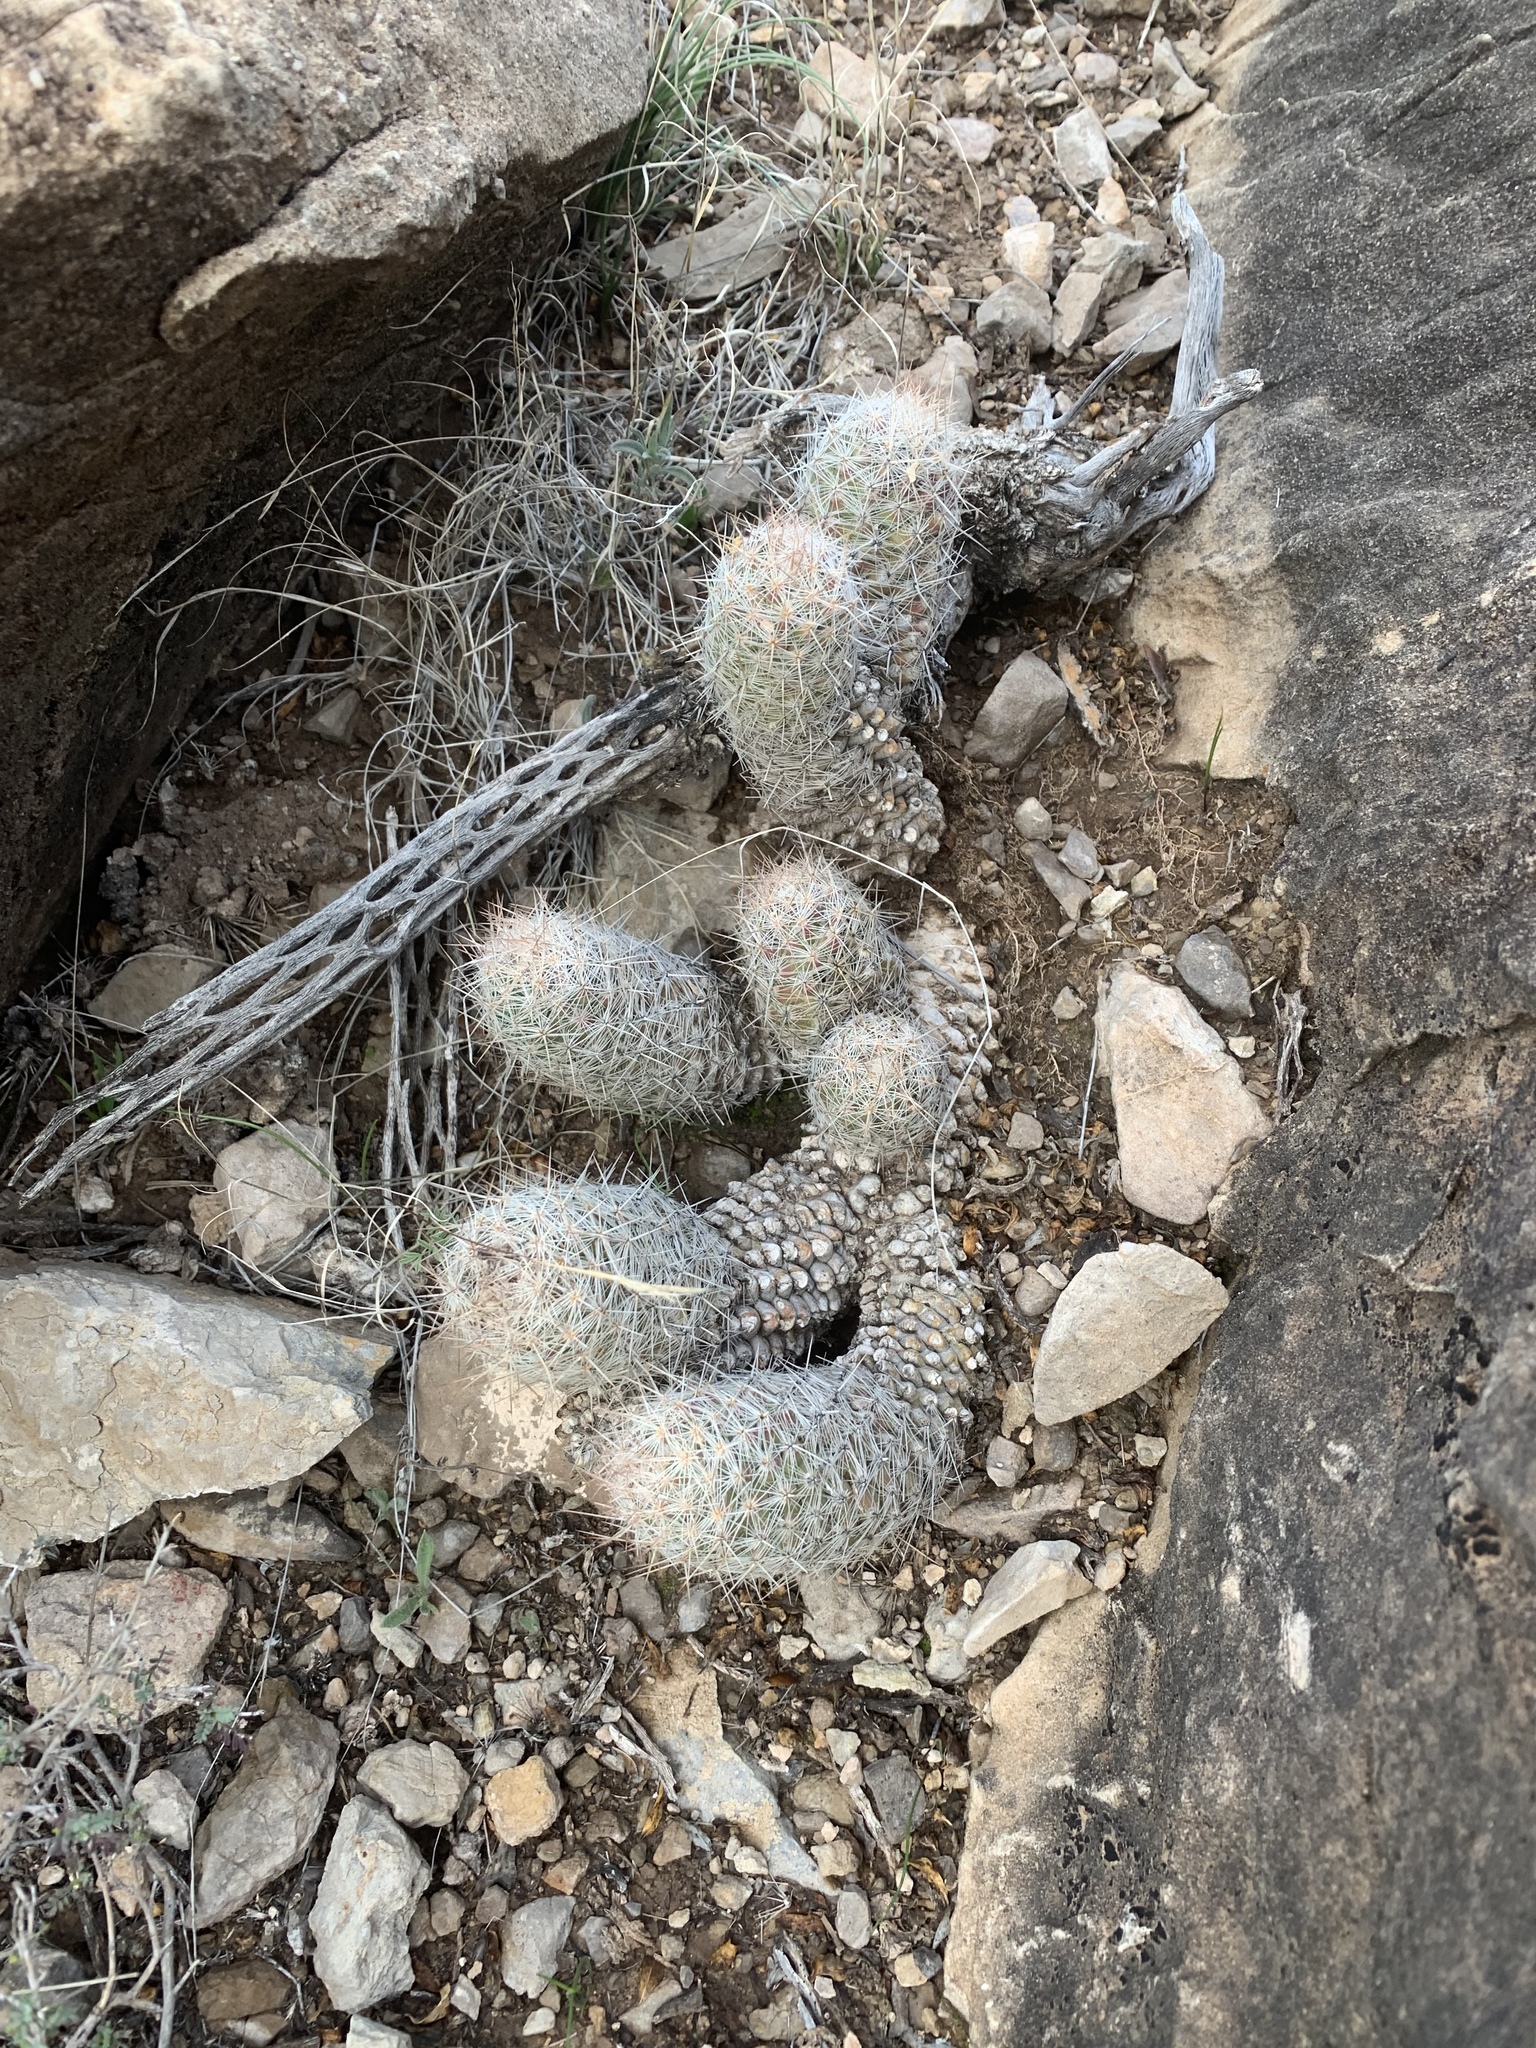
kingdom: Plantae
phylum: Tracheophyta
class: Magnoliopsida
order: Caryophyllales
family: Cactaceae
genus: Pelecyphora
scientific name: Pelecyphora tuberculosa
